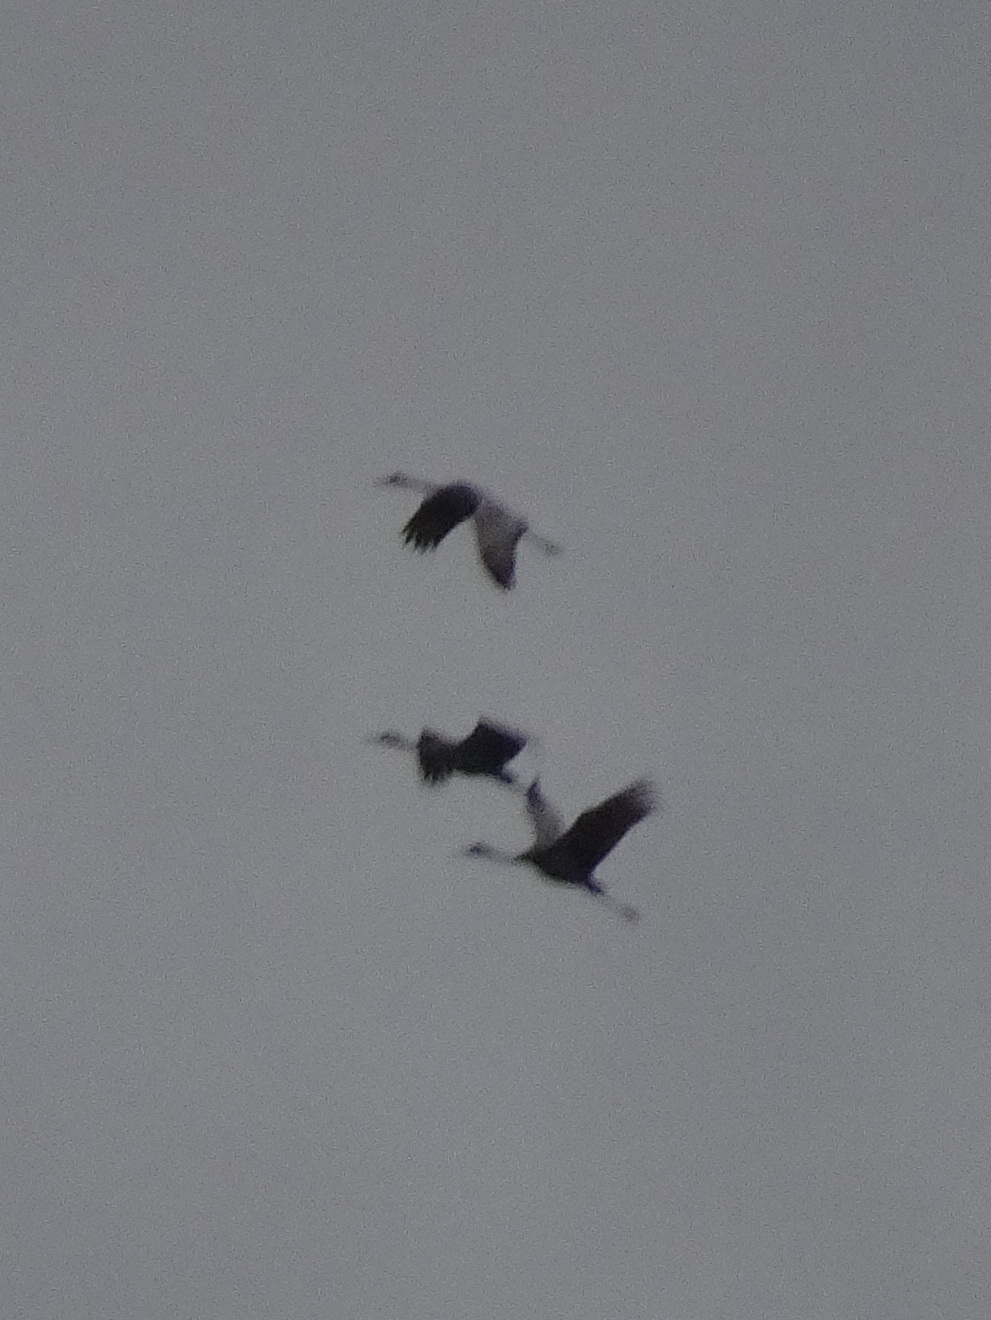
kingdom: Animalia
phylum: Chordata
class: Aves
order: Gruiformes
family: Gruidae
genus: Grus
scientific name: Grus canadensis
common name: Sandhill crane
